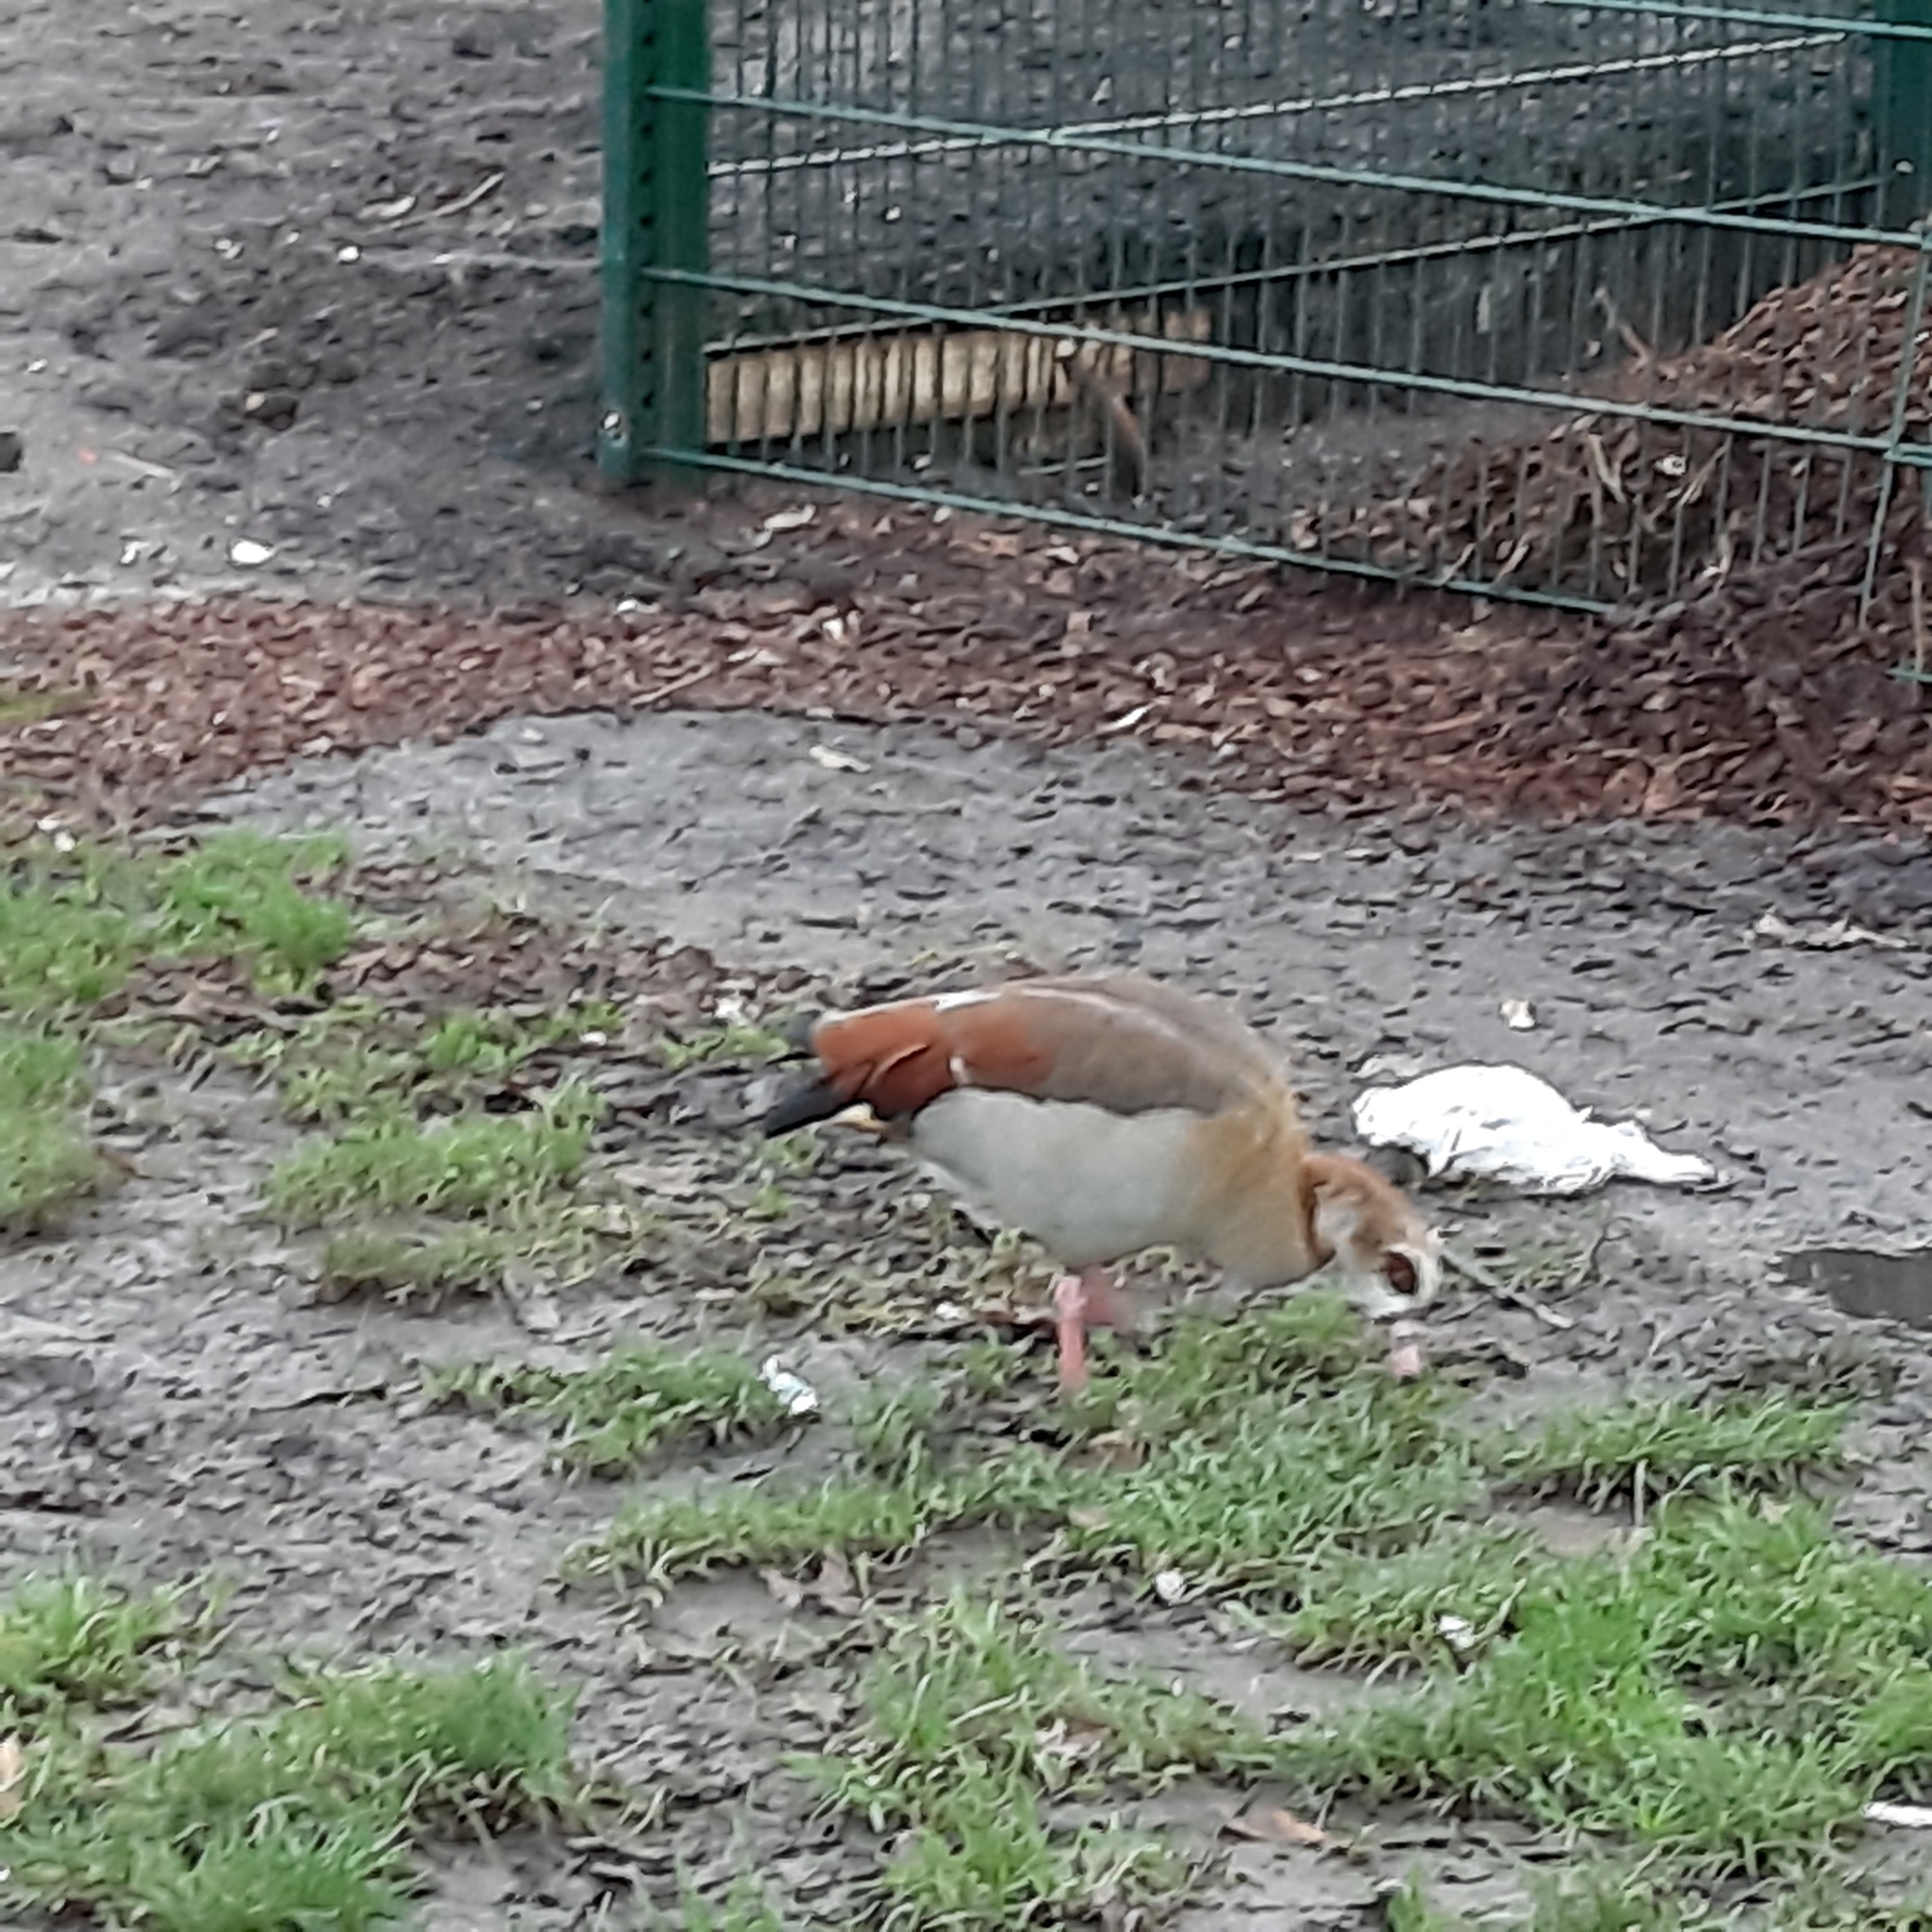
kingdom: Animalia
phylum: Chordata
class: Aves
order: Anseriformes
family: Anatidae
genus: Alopochen
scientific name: Alopochen aegyptiaca
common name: Egyptian goose
